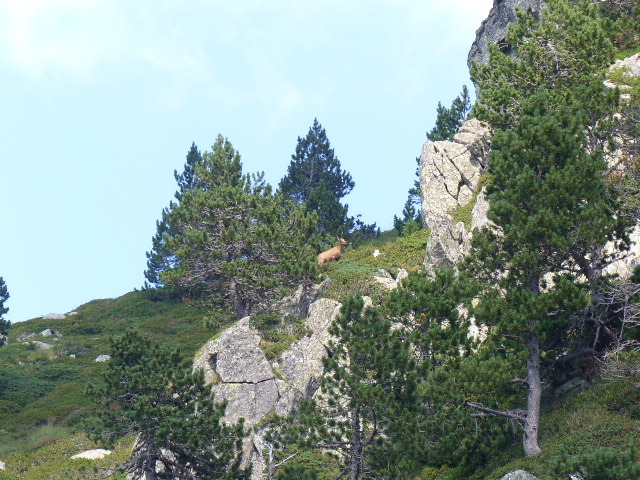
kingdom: Animalia
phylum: Chordata
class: Mammalia
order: Artiodactyla
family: Bovidae
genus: Rupicapra
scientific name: Rupicapra pyrenaica
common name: Pyrenean chamois
